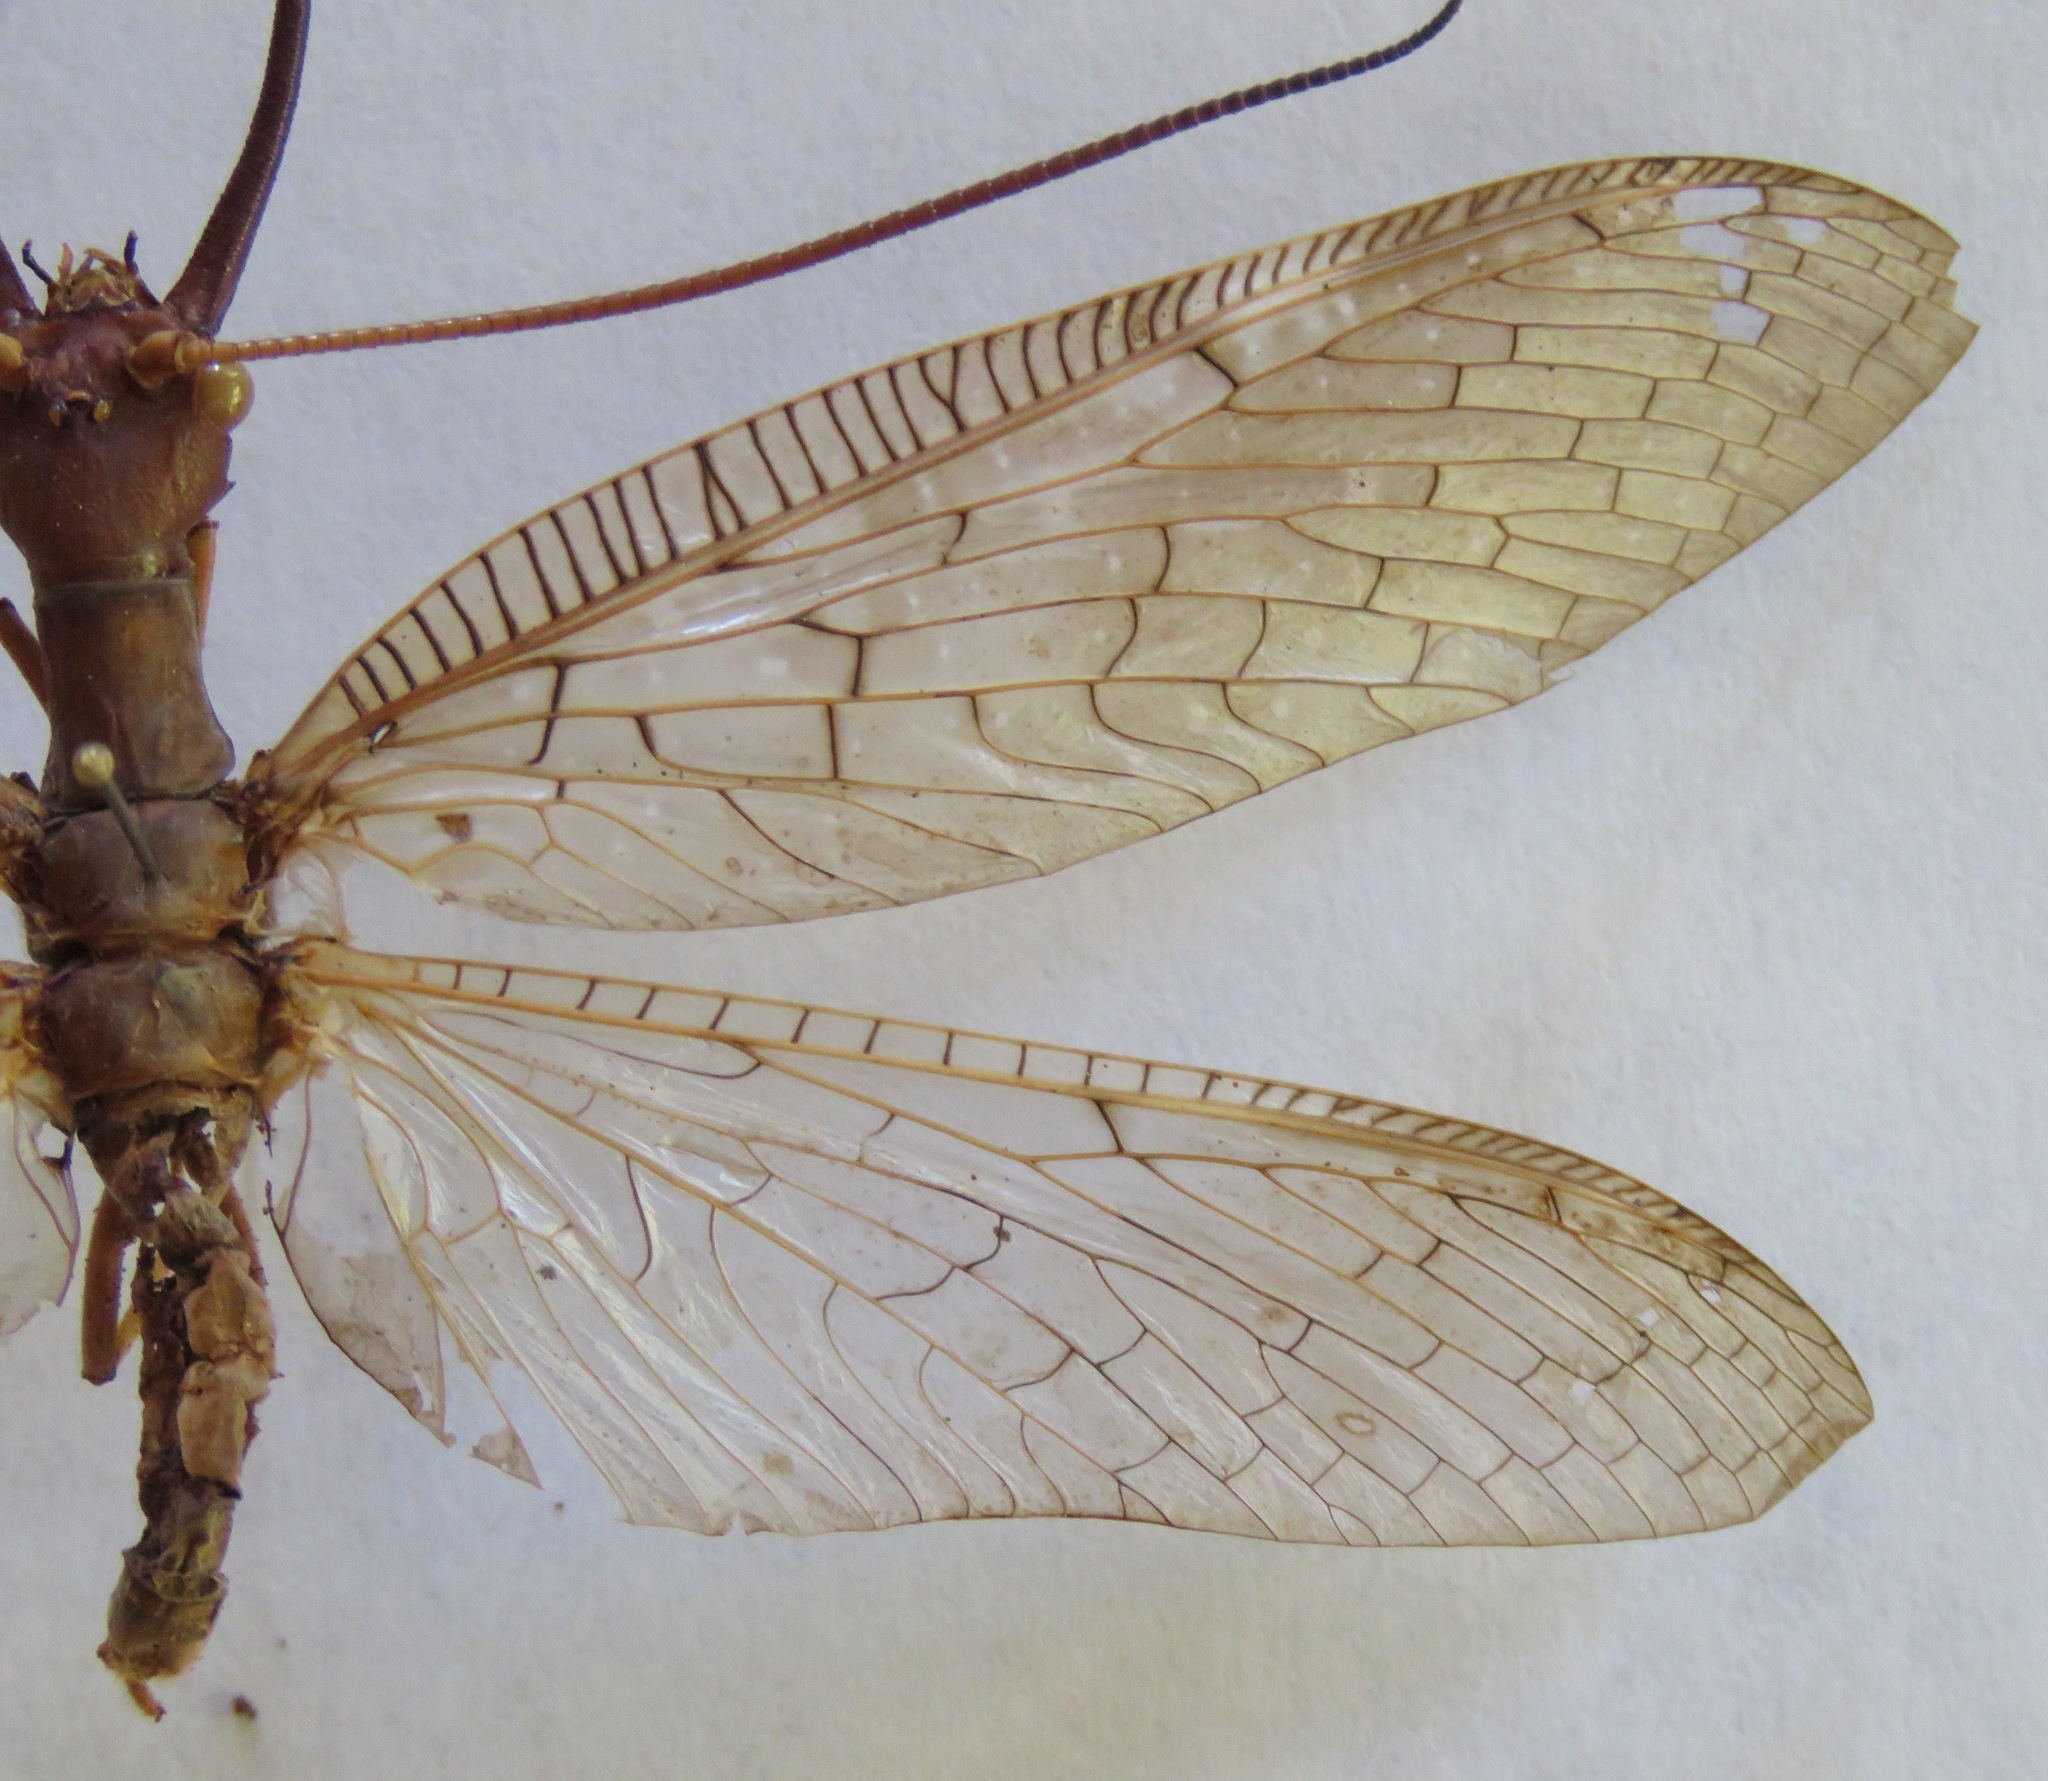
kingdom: Animalia
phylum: Arthropoda
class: Insecta
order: Megaloptera
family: Corydalidae
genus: Corydalus
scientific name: Corydalus peruvianus
